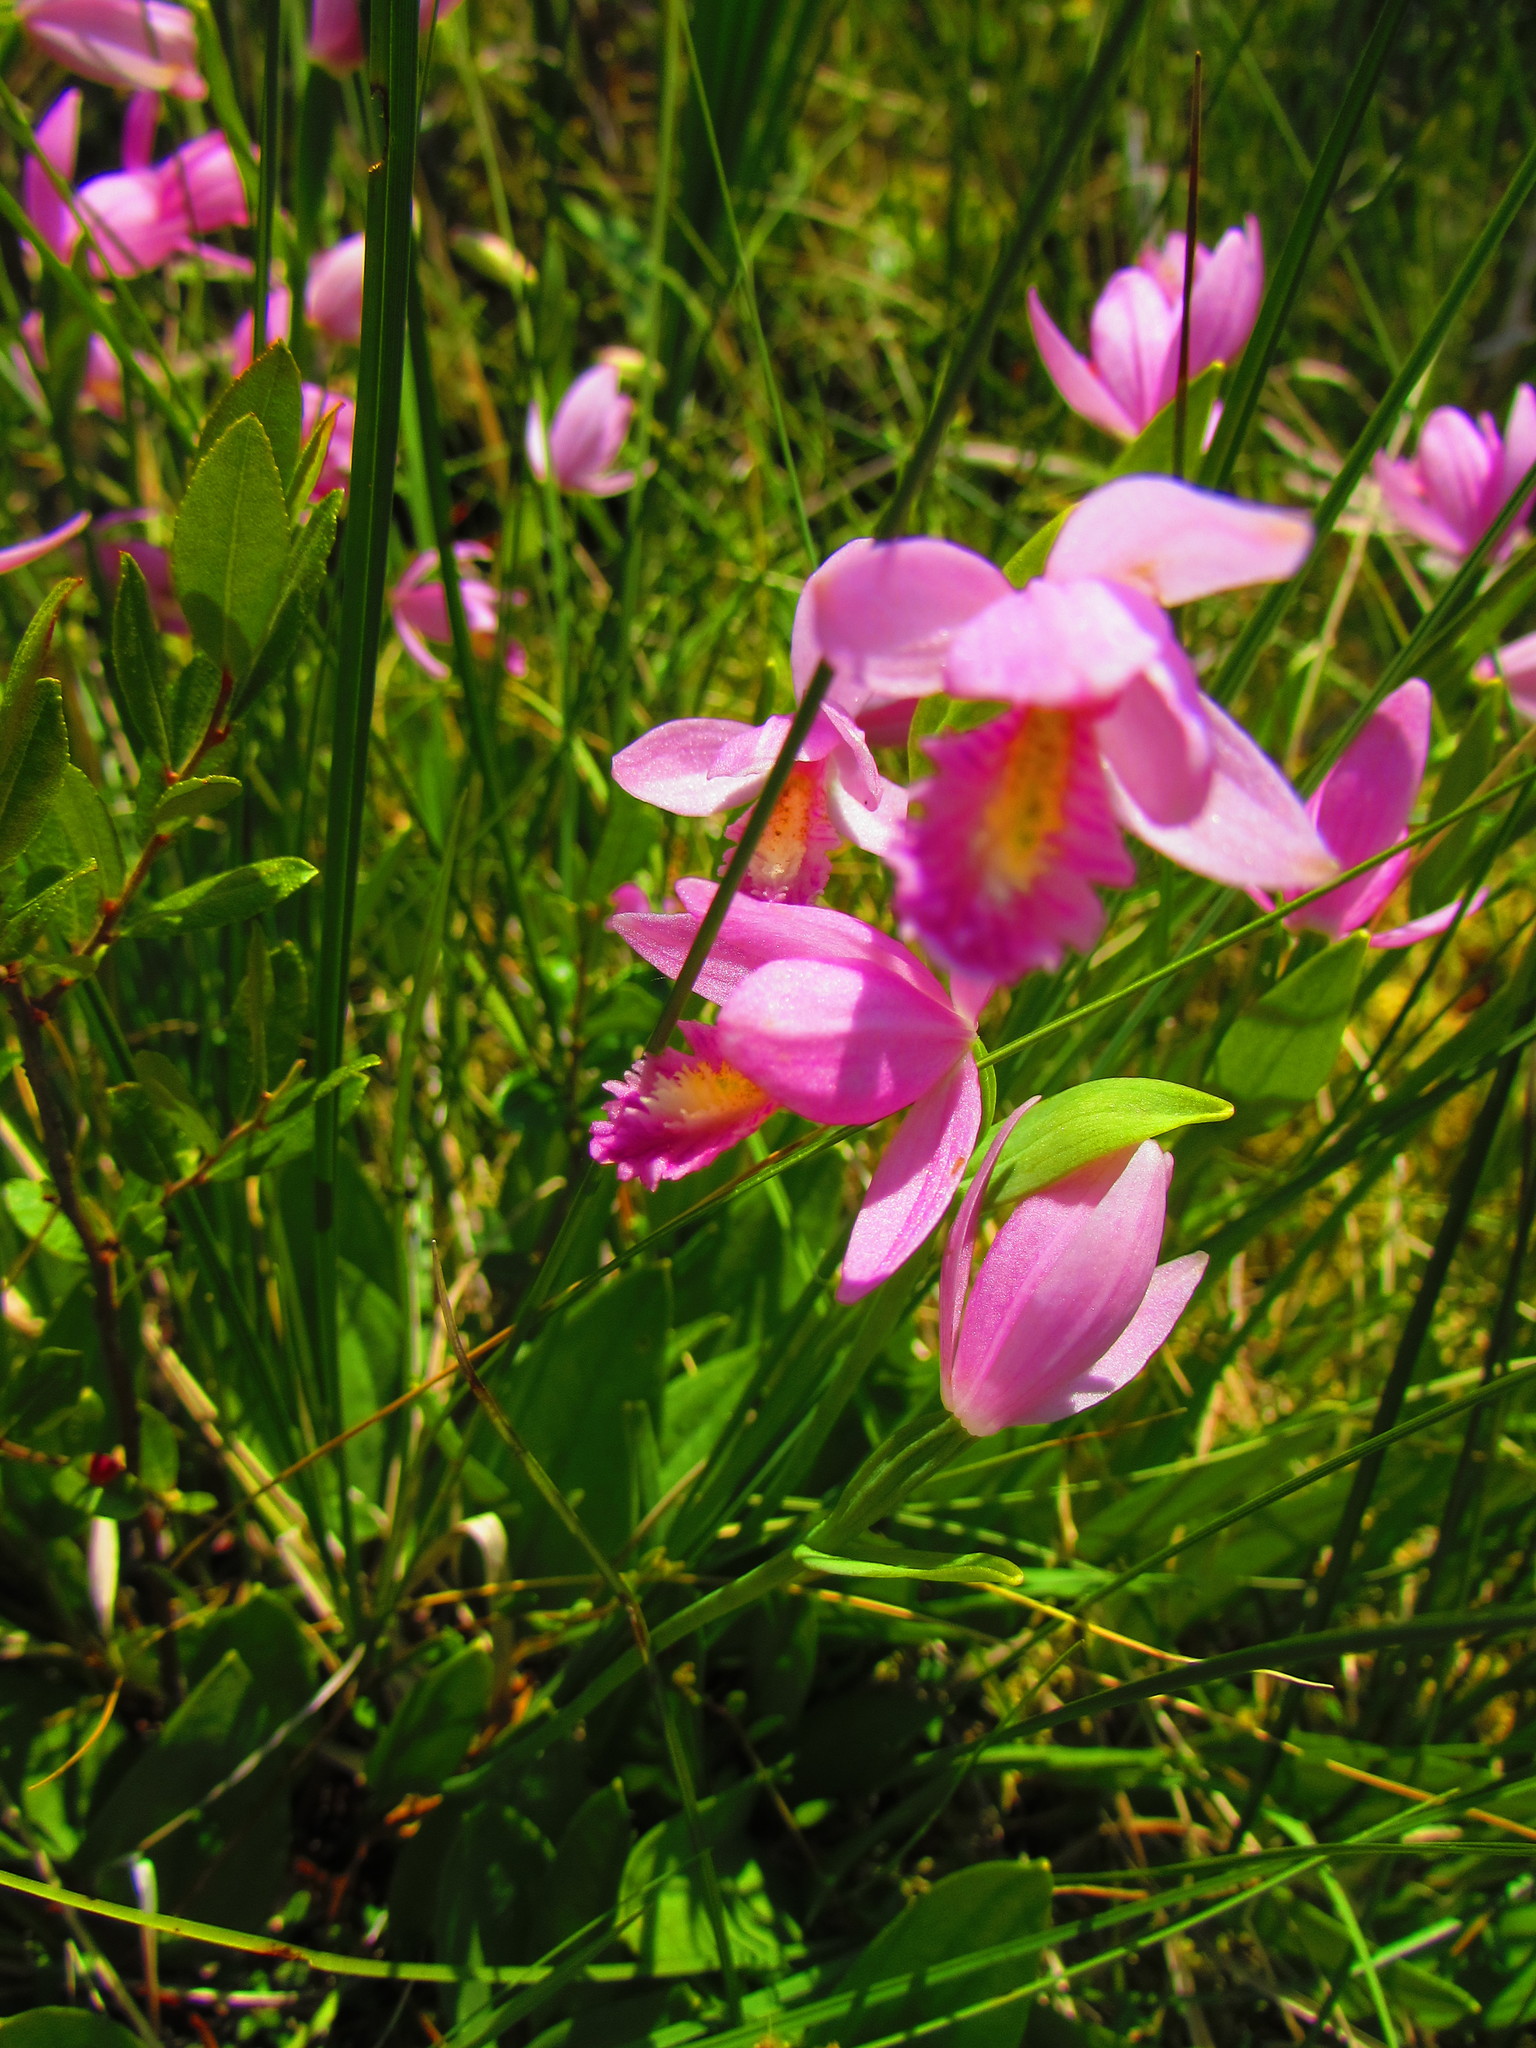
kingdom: Plantae
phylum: Tracheophyta
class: Liliopsida
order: Asparagales
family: Orchidaceae
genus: Pogonia
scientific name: Pogonia ophioglossoides
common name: Rose pogonia
